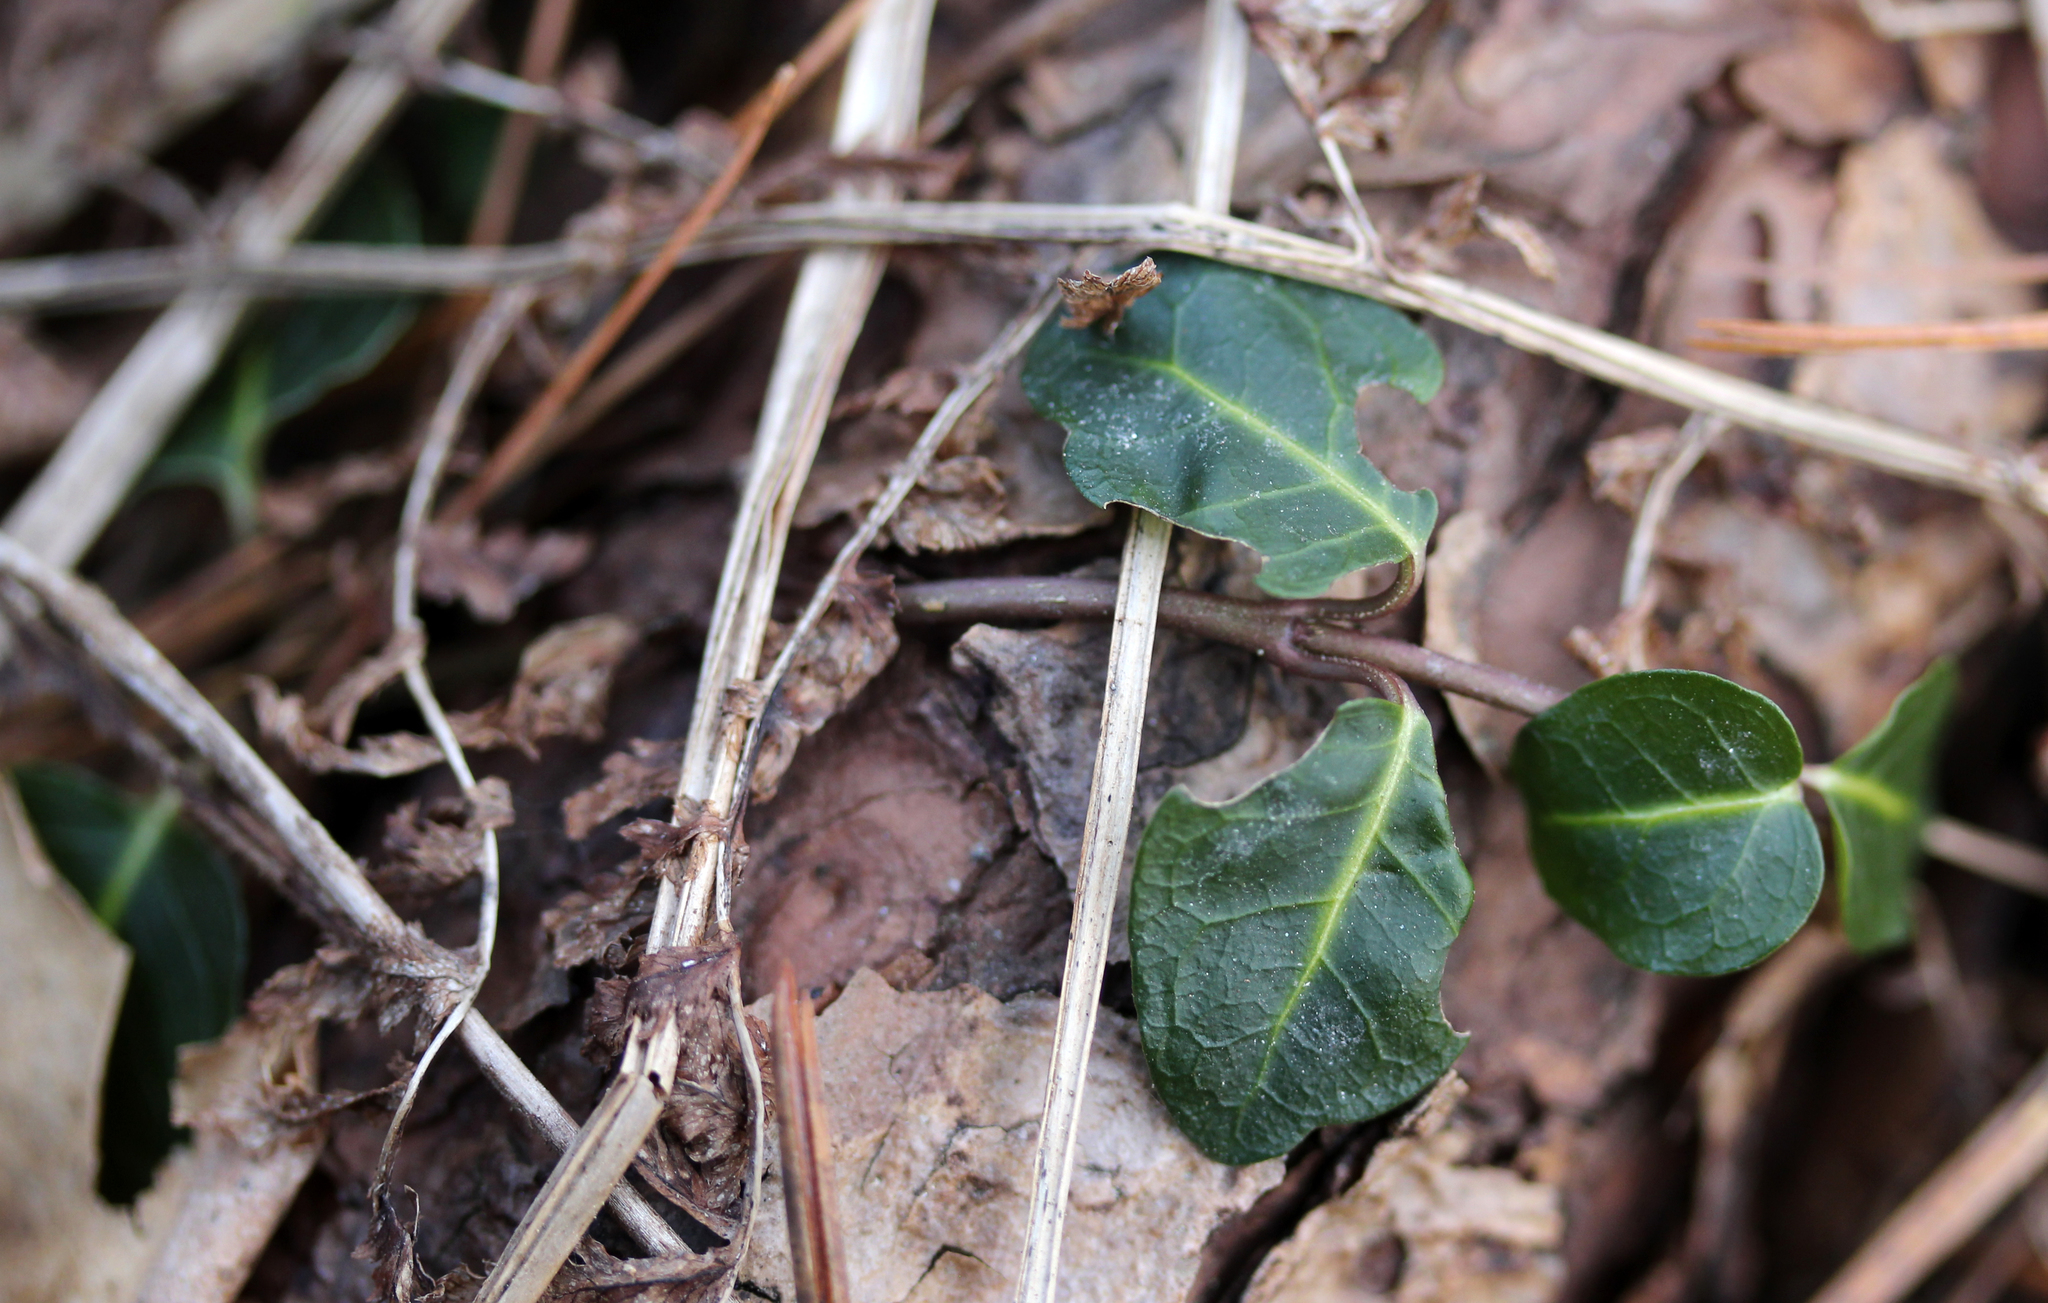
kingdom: Plantae
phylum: Tracheophyta
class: Magnoliopsida
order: Gentianales
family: Rubiaceae
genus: Mitchella
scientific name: Mitchella repens
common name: Partridge-berry
